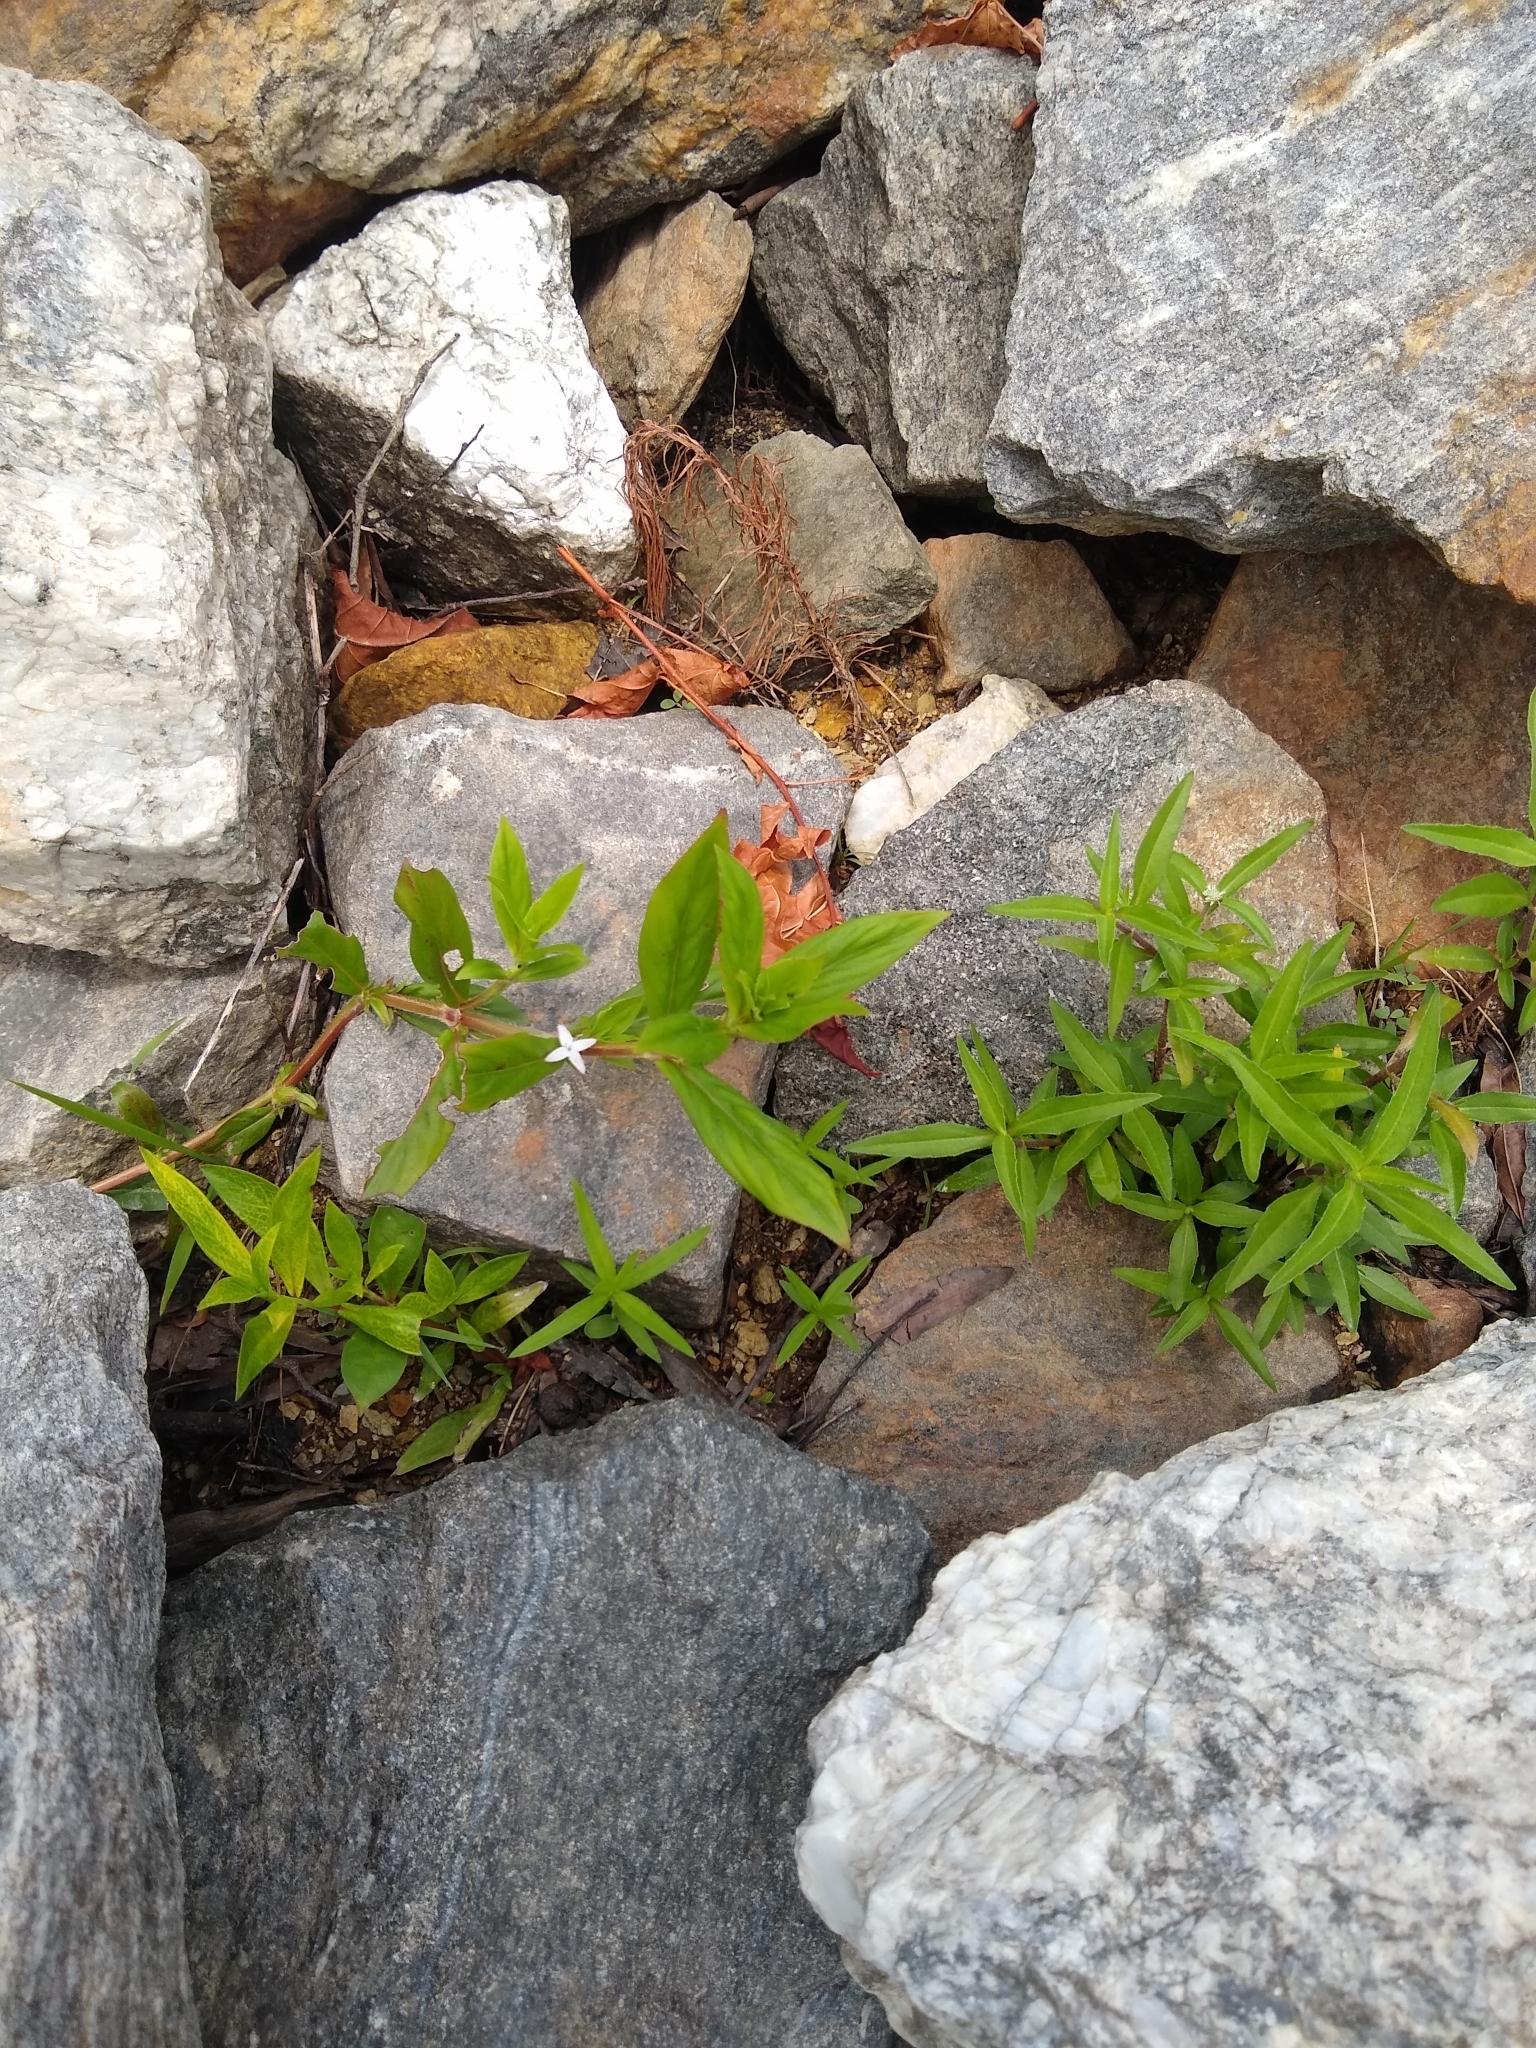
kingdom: Plantae
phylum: Tracheophyta
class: Magnoliopsida
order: Gentianales
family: Rubiaceae
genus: Diodia
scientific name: Diodia virginiana
